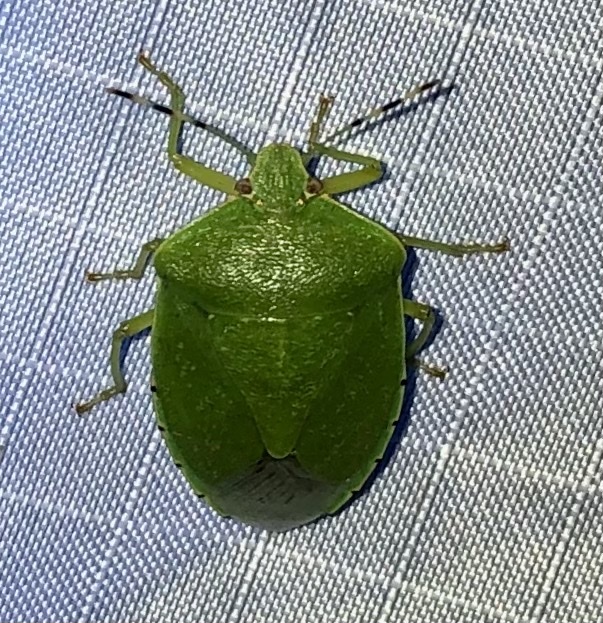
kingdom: Animalia
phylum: Arthropoda
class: Insecta
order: Hemiptera
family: Pentatomidae
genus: Chinavia
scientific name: Chinavia hilaris
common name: Green stink bug
